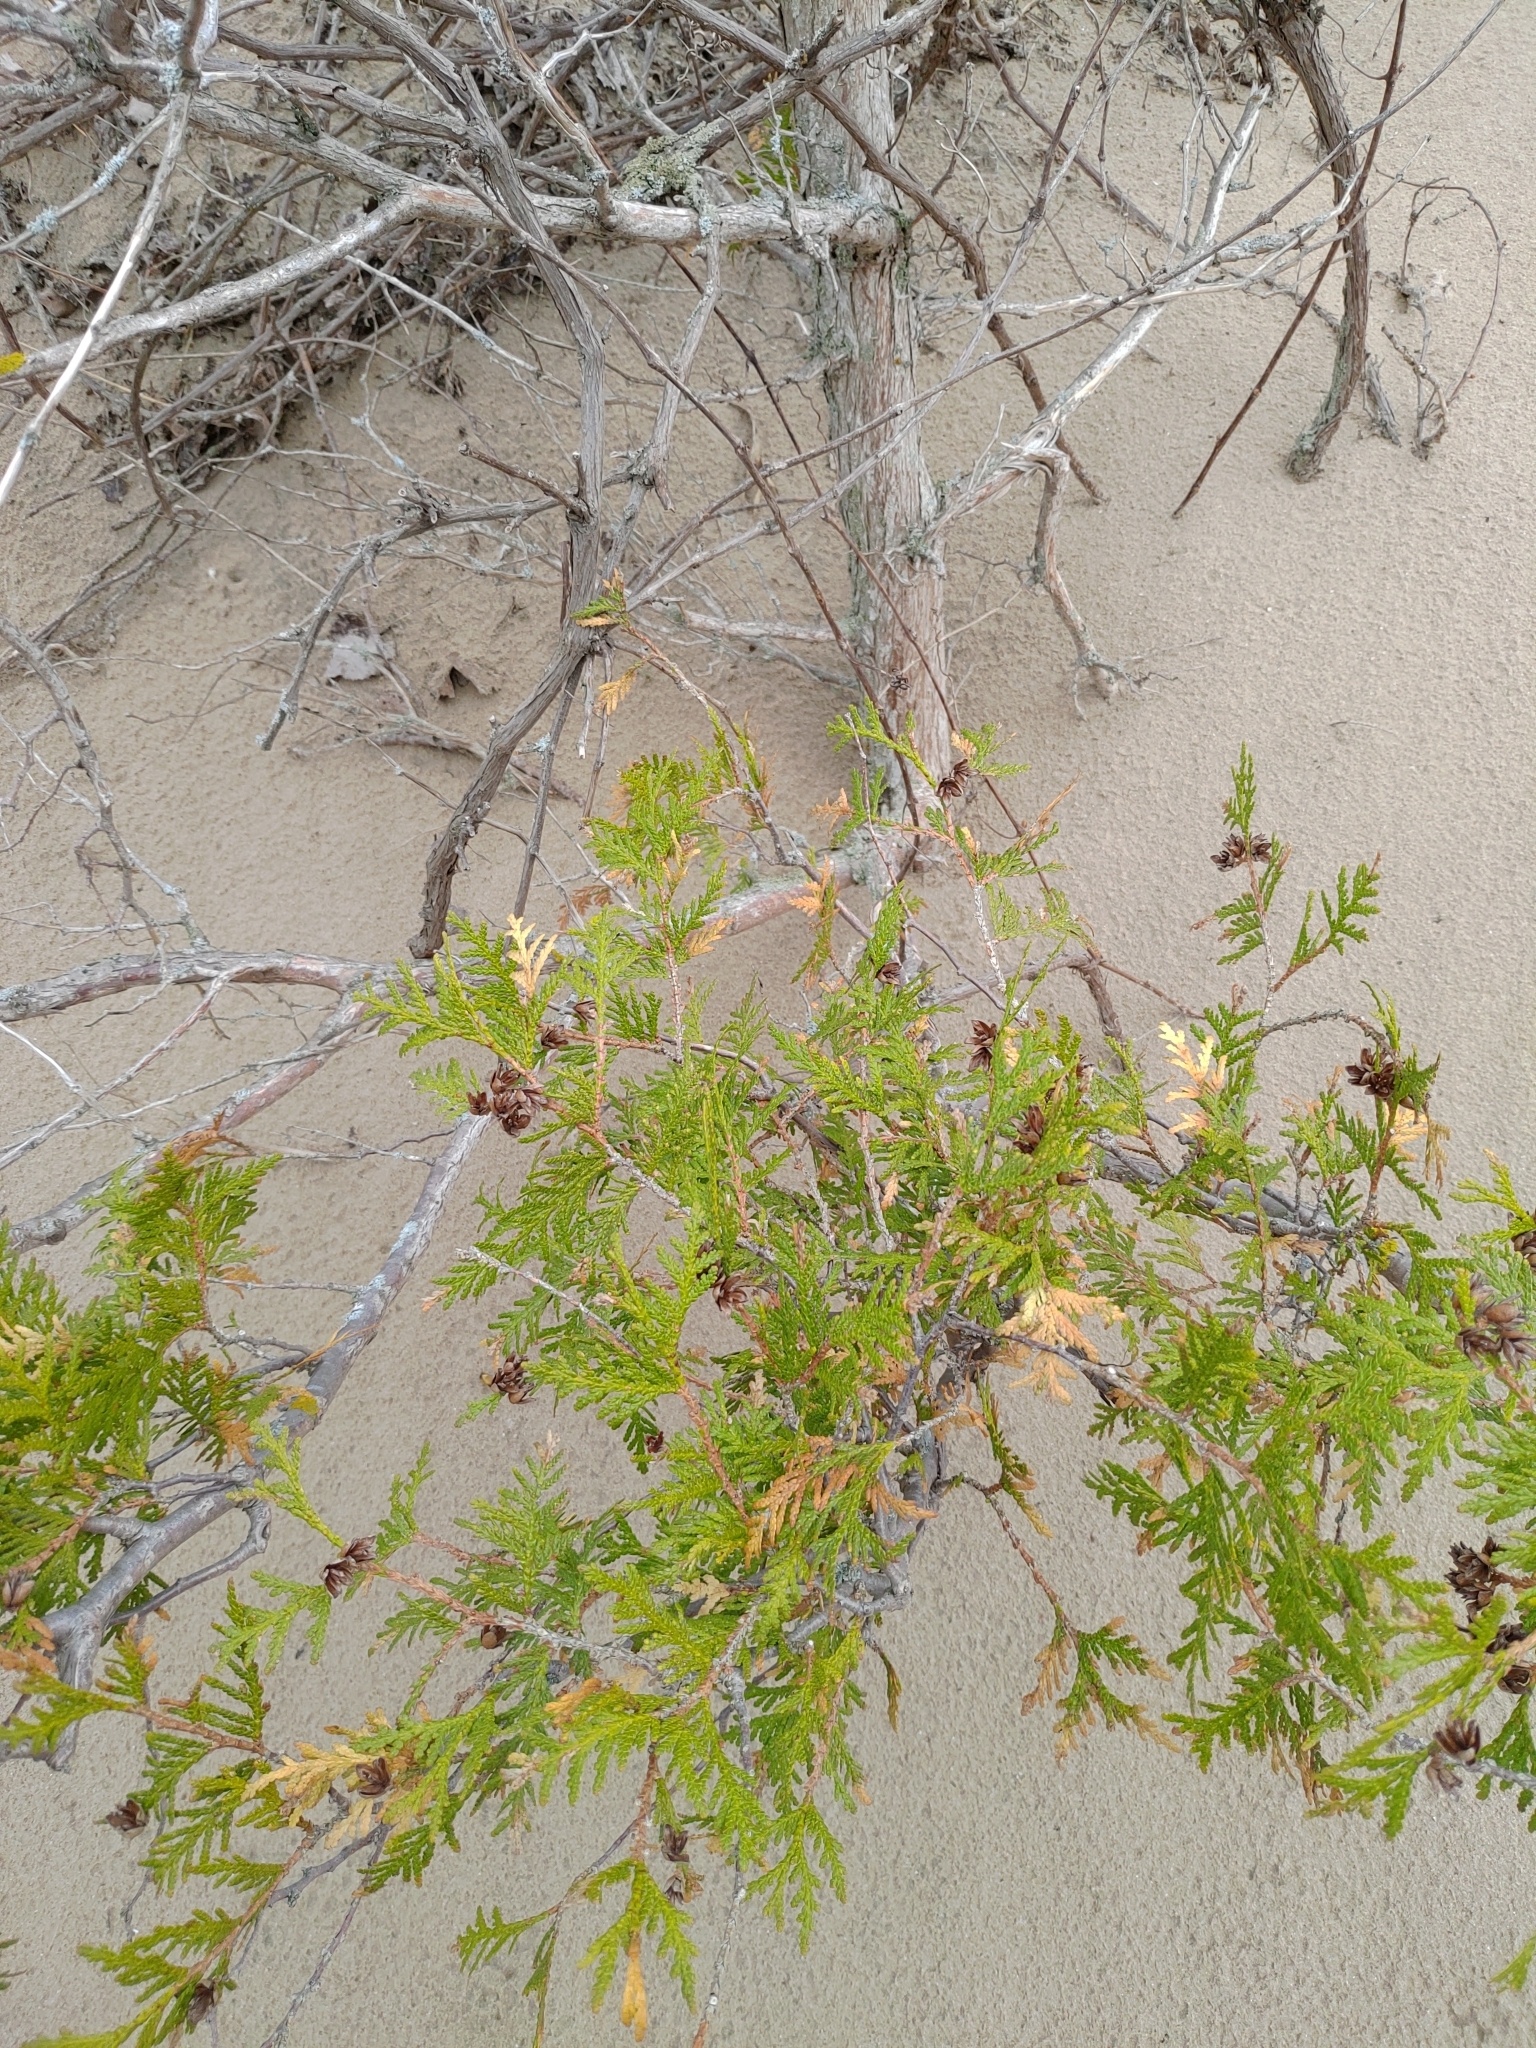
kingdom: Plantae
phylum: Tracheophyta
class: Pinopsida
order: Pinales
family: Cupressaceae
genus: Thuja
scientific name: Thuja occidentalis
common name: Northern white-cedar
